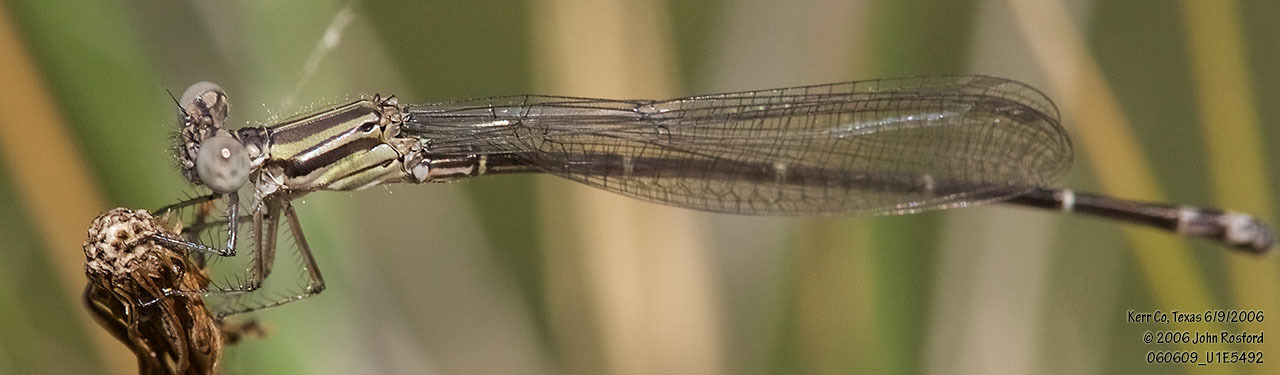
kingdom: Animalia
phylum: Arthropoda
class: Insecta
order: Odonata
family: Coenagrionidae
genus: Argia
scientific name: Argia translata
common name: Dusky dancer
